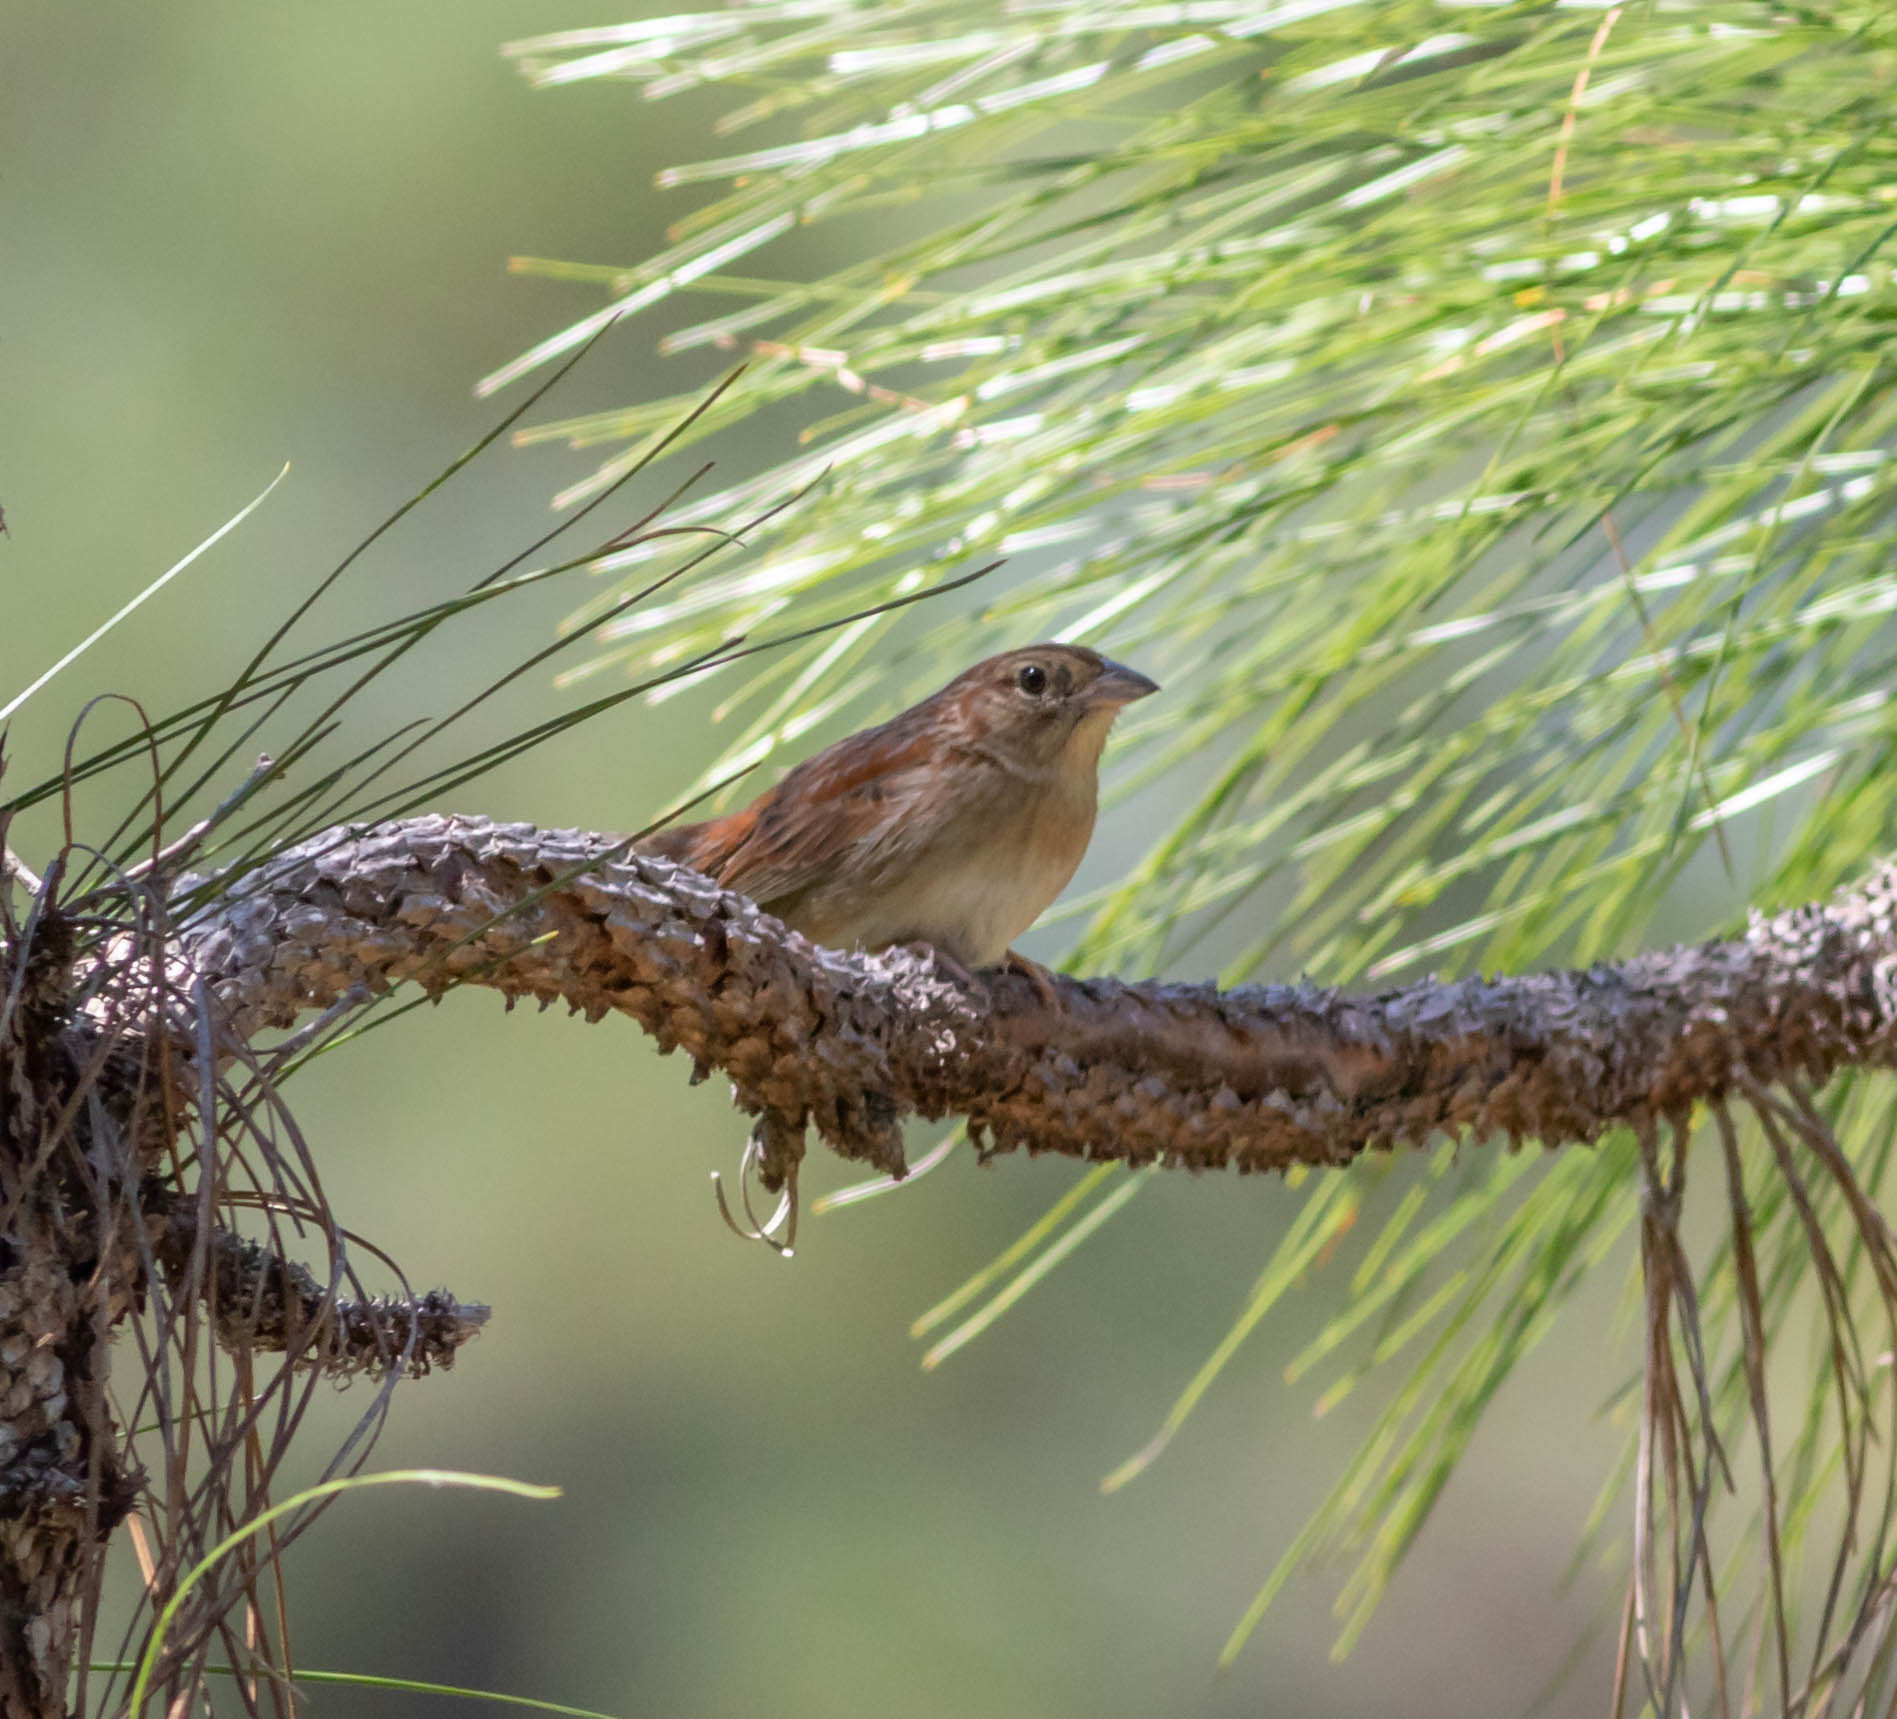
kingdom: Animalia
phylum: Chordata
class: Aves
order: Passeriformes
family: Passerellidae
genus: Peucaea
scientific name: Peucaea aestivalis
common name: Bachman's sparrow
